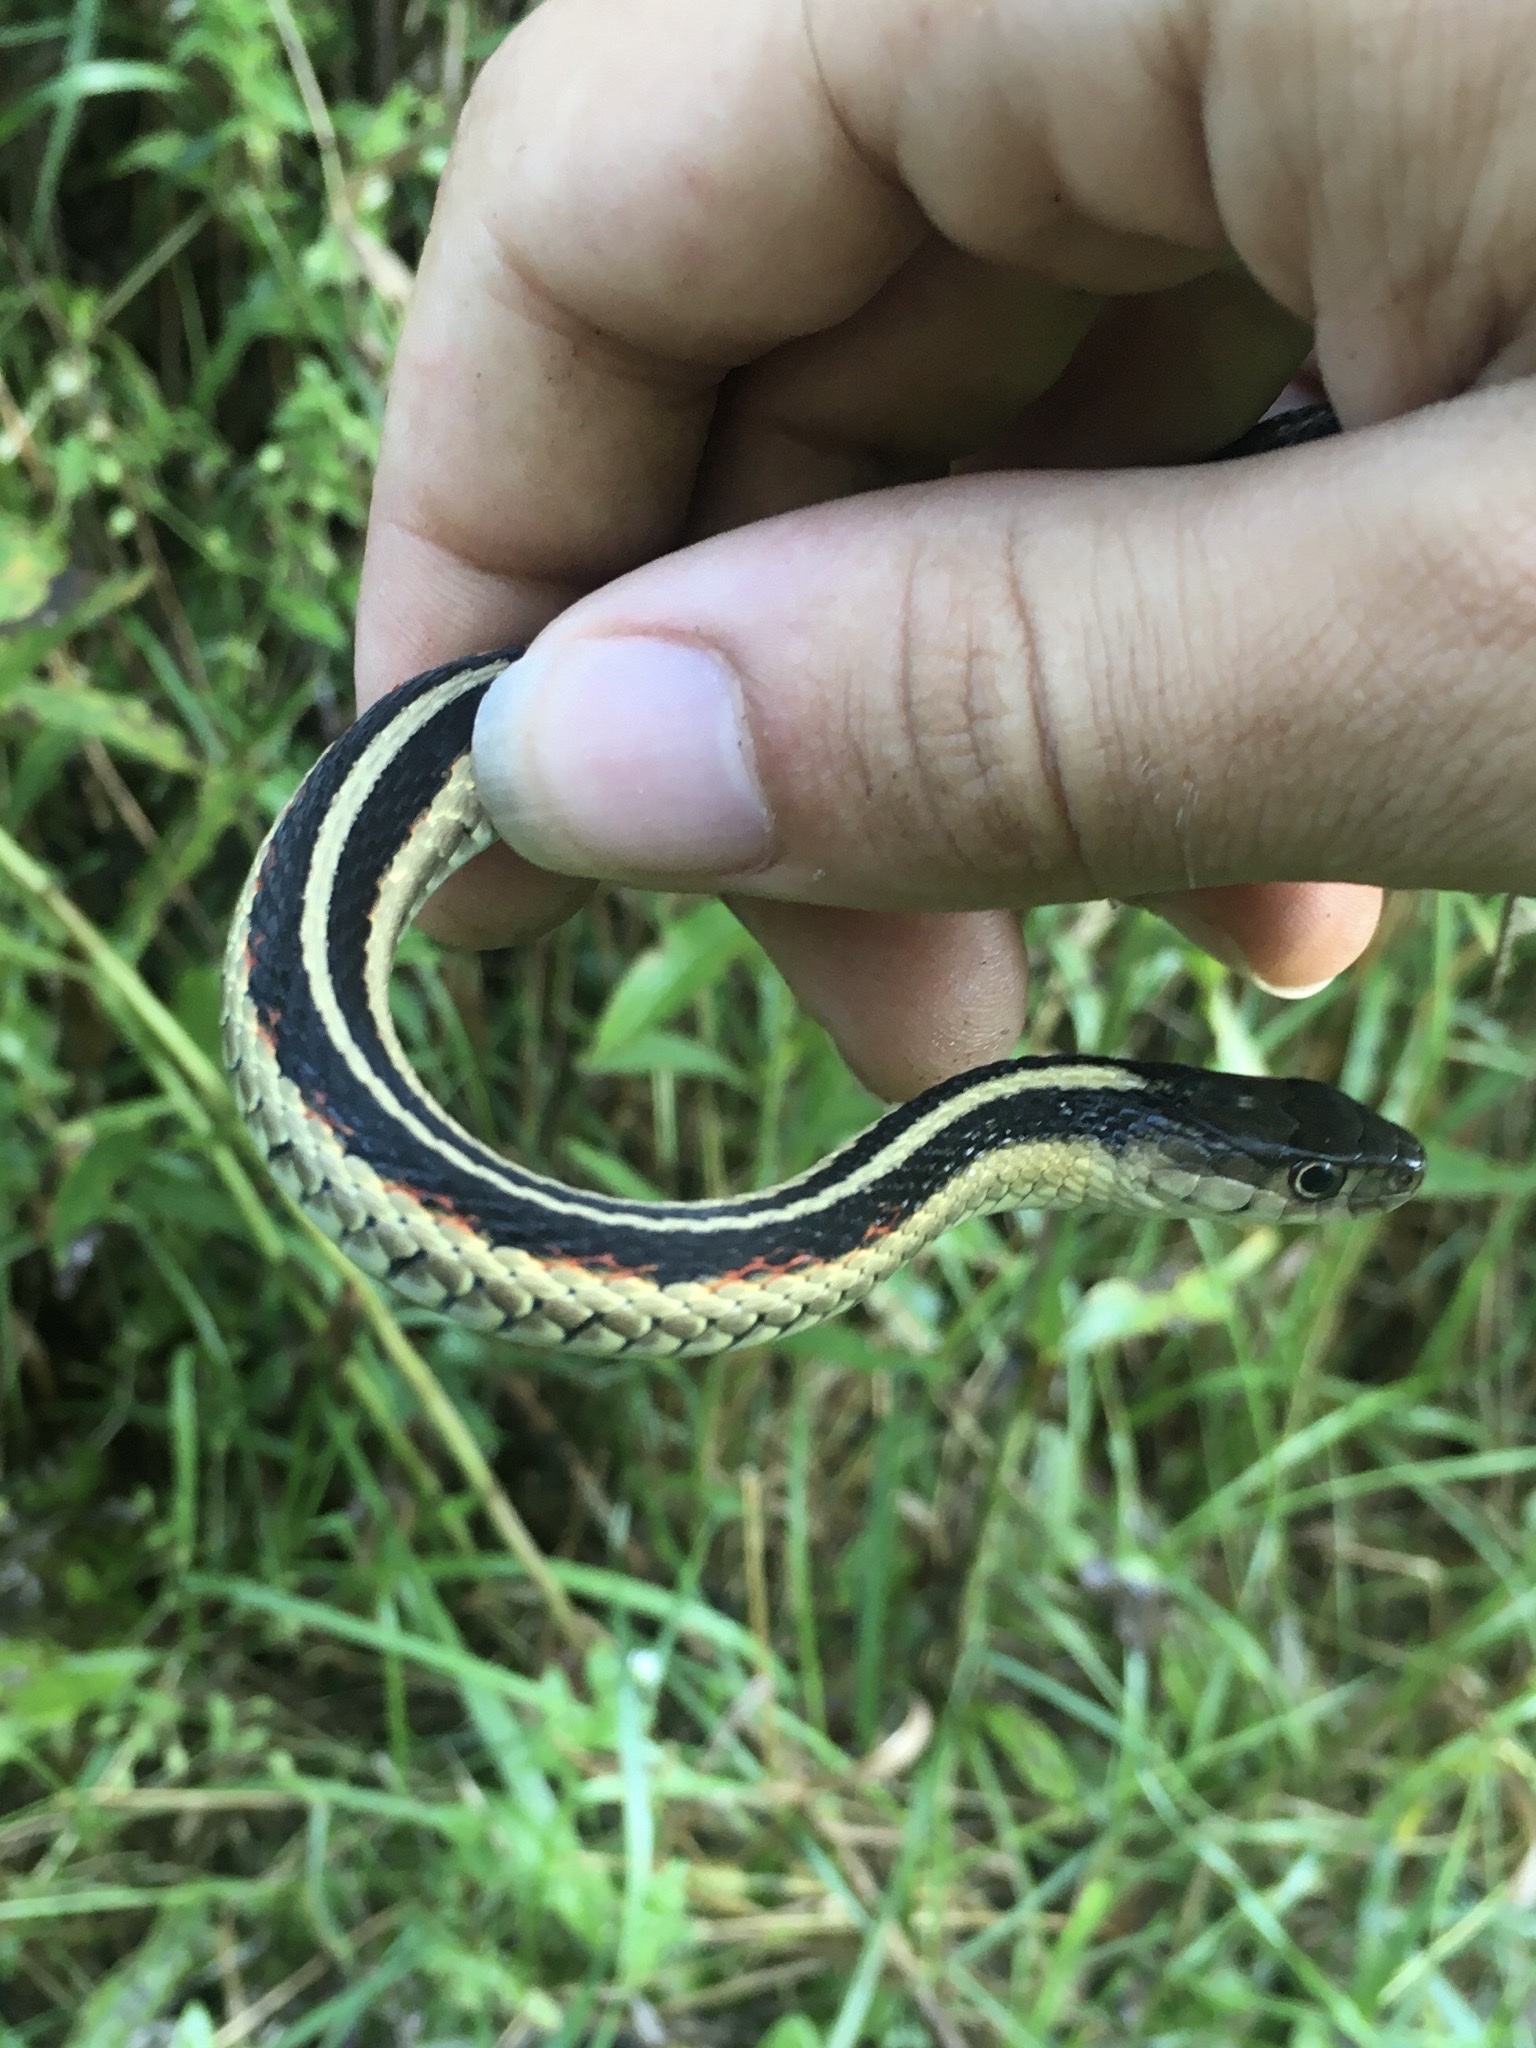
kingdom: Animalia
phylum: Chordata
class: Squamata
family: Colubridae
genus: Thamnophis
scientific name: Thamnophis sirtalis
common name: Common garter snake
